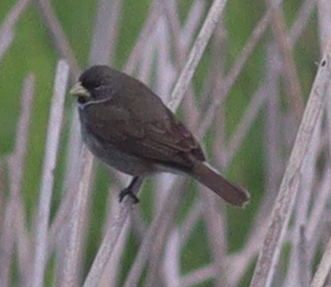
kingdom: Animalia
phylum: Chordata
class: Aves
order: Passeriformes
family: Thraupidae
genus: Sporophila
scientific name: Sporophila caerulescens
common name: Double-collared seedeater
